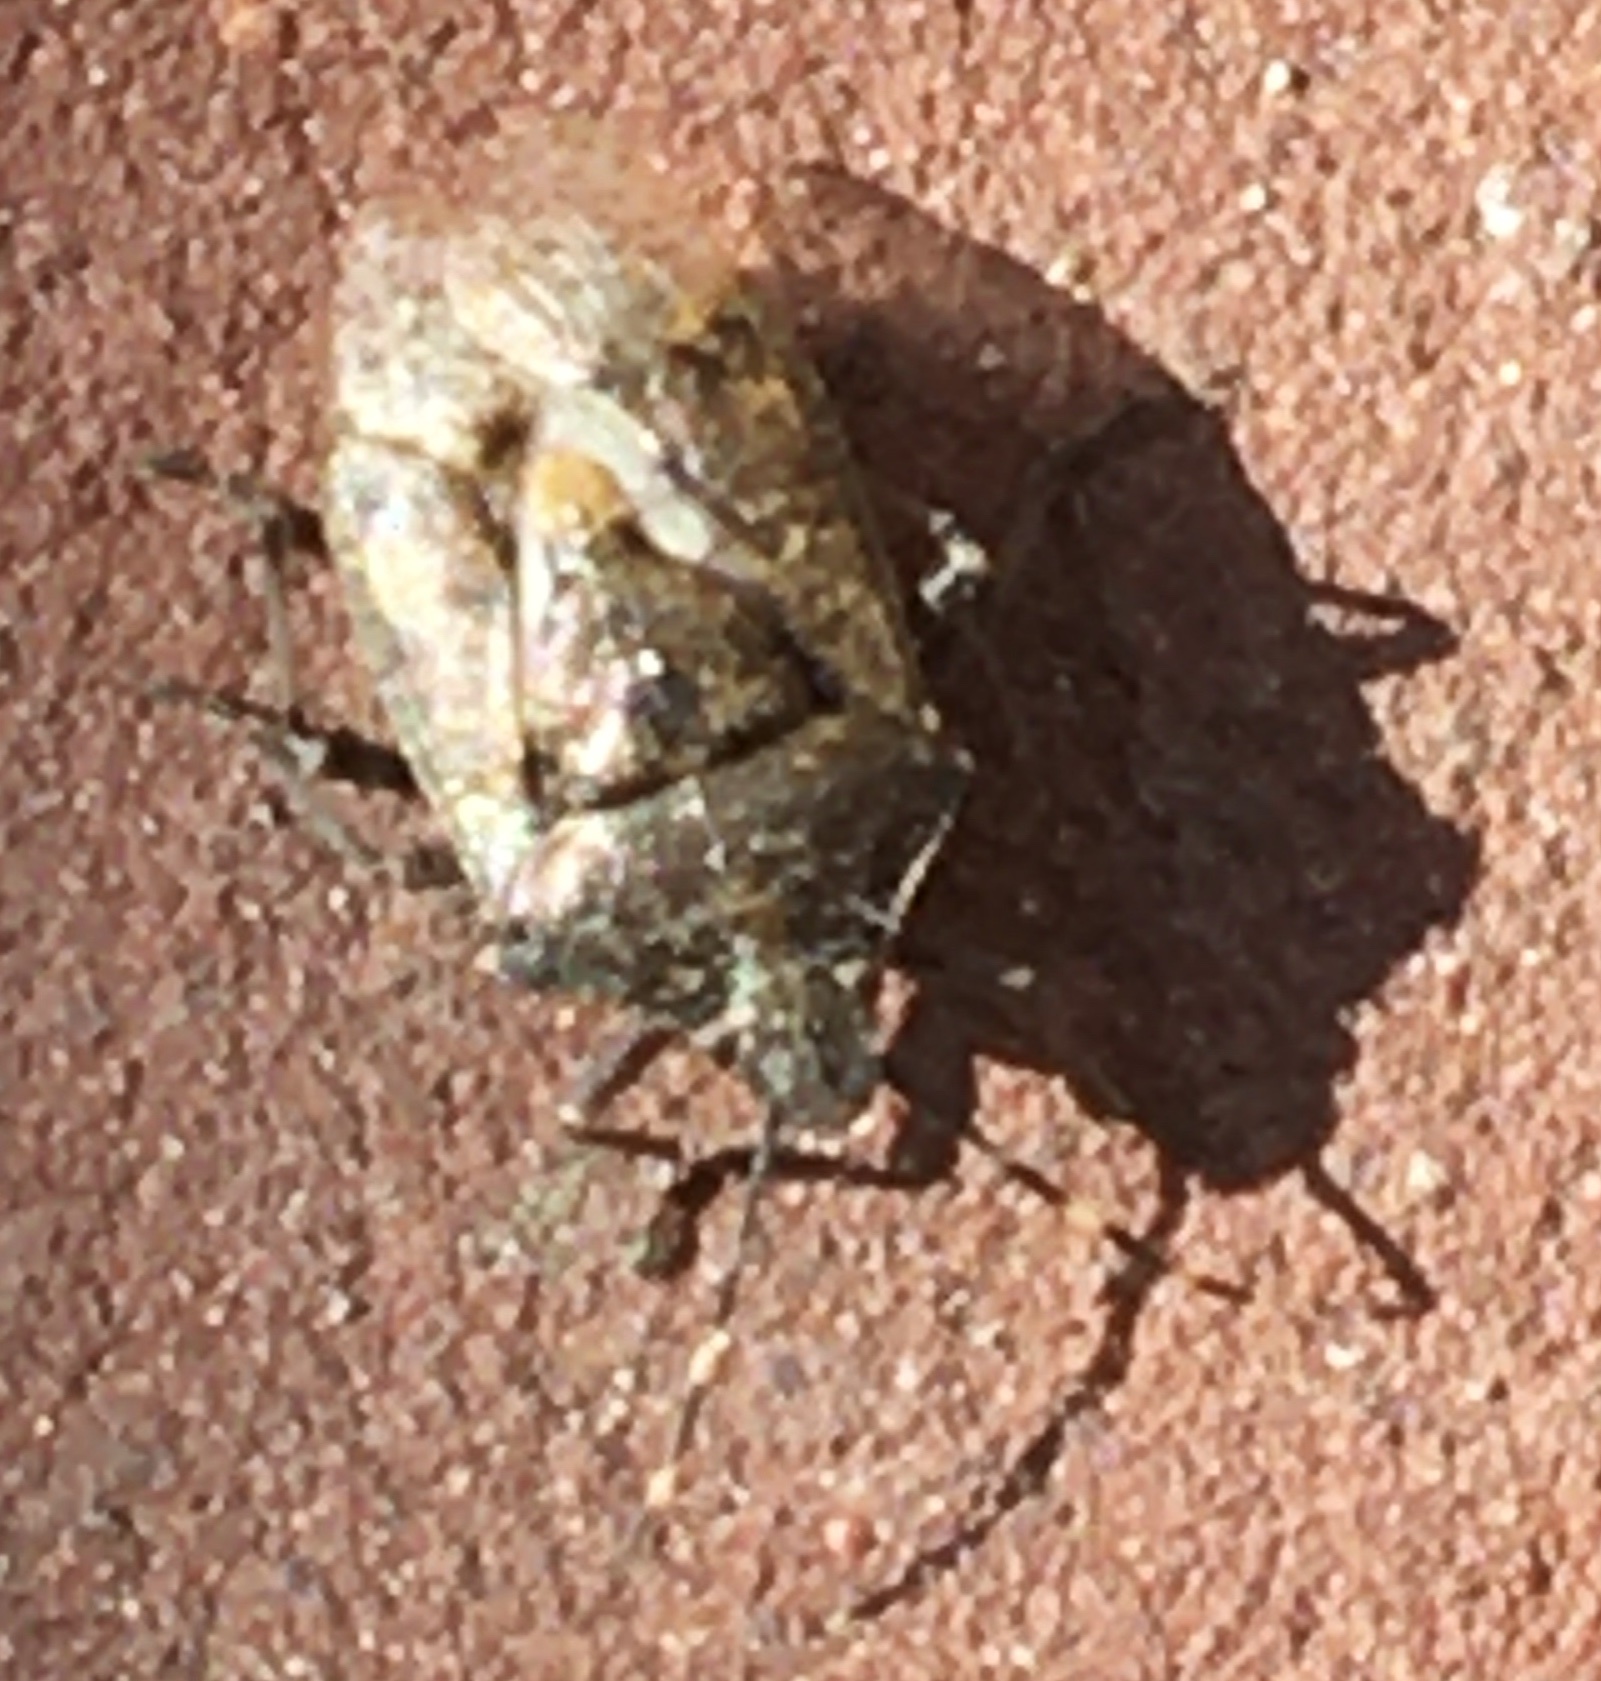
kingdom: Animalia
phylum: Arthropoda
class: Insecta
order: Hemiptera
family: Pentatomidae
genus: Rhaphigaster
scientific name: Rhaphigaster nebulosa
